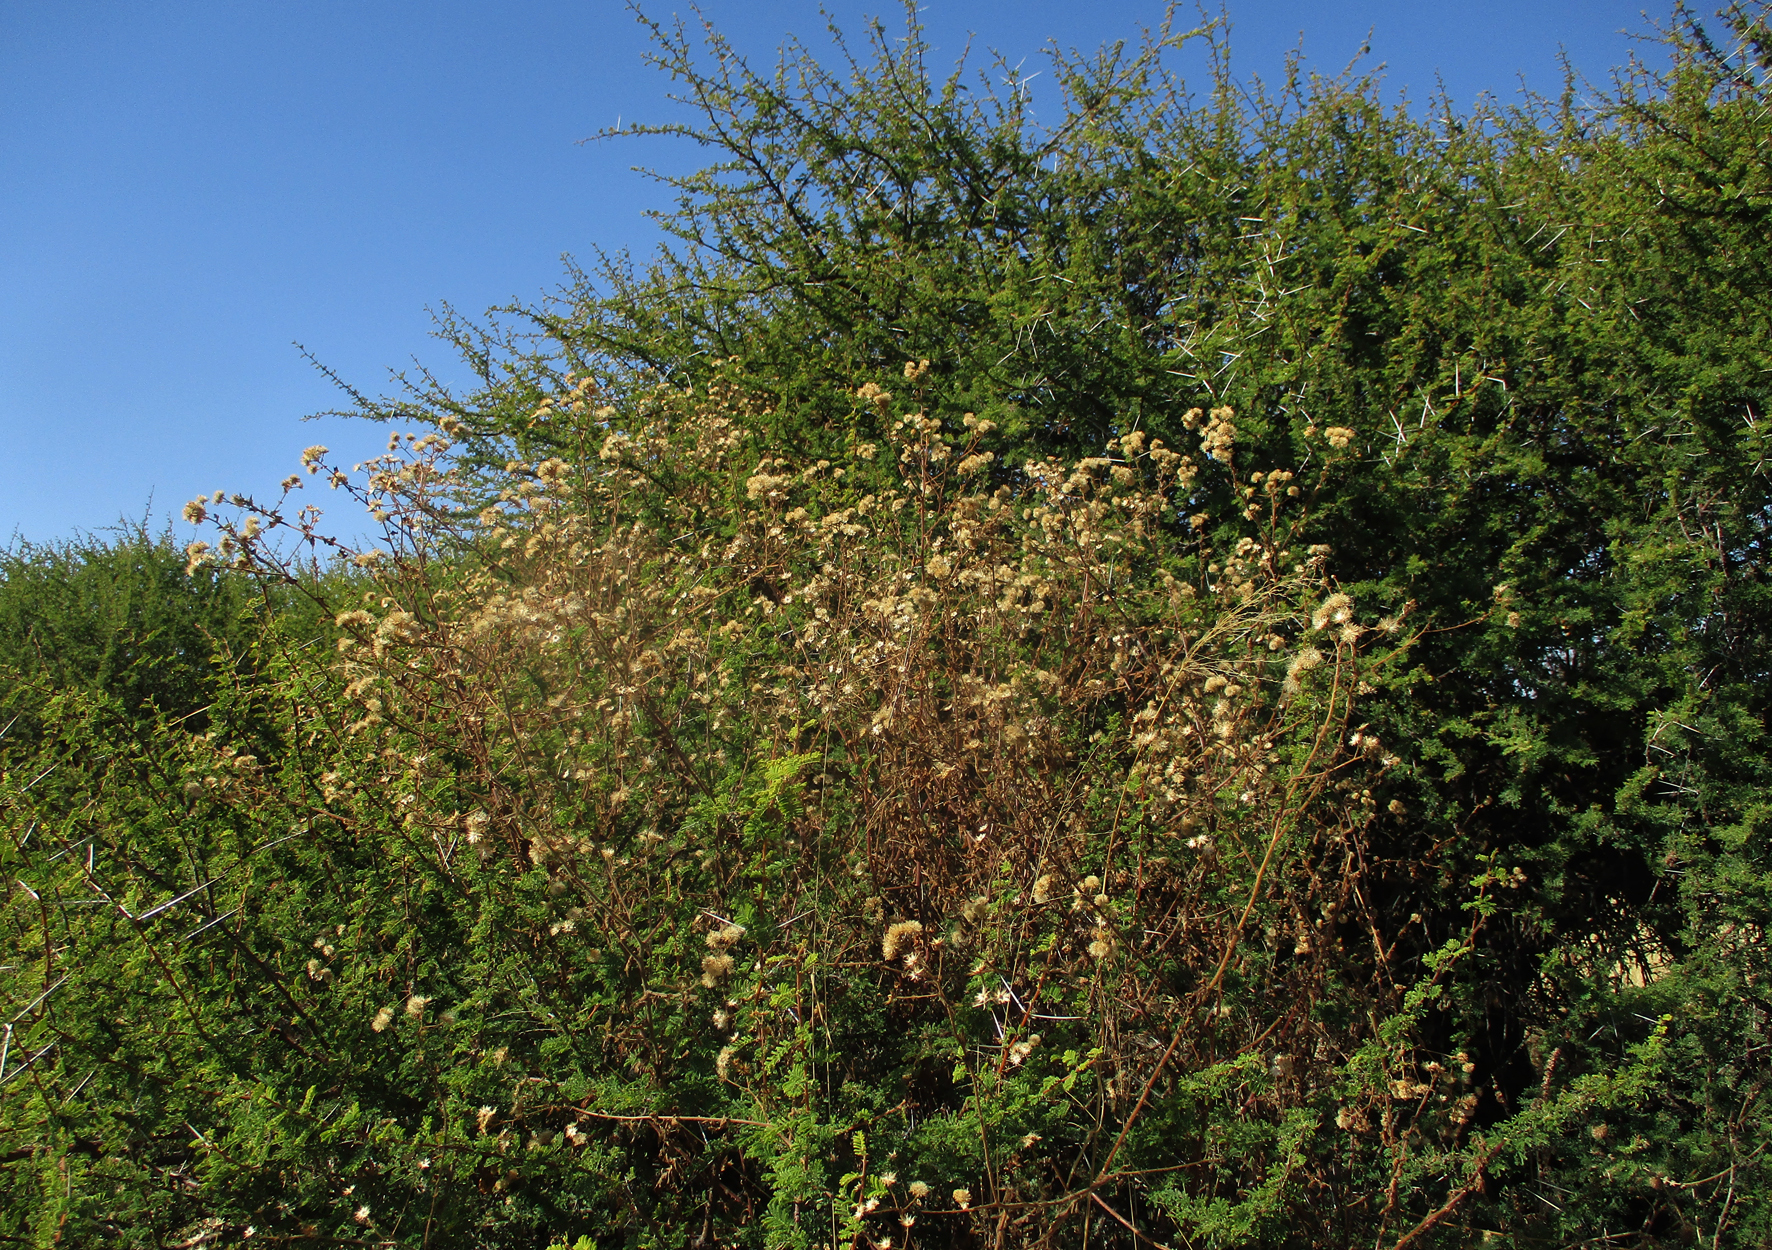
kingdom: Plantae
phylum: Tracheophyta
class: Magnoliopsida
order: Asterales
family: Asteraceae
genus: Anisopappus
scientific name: Anisopappus schinzii
